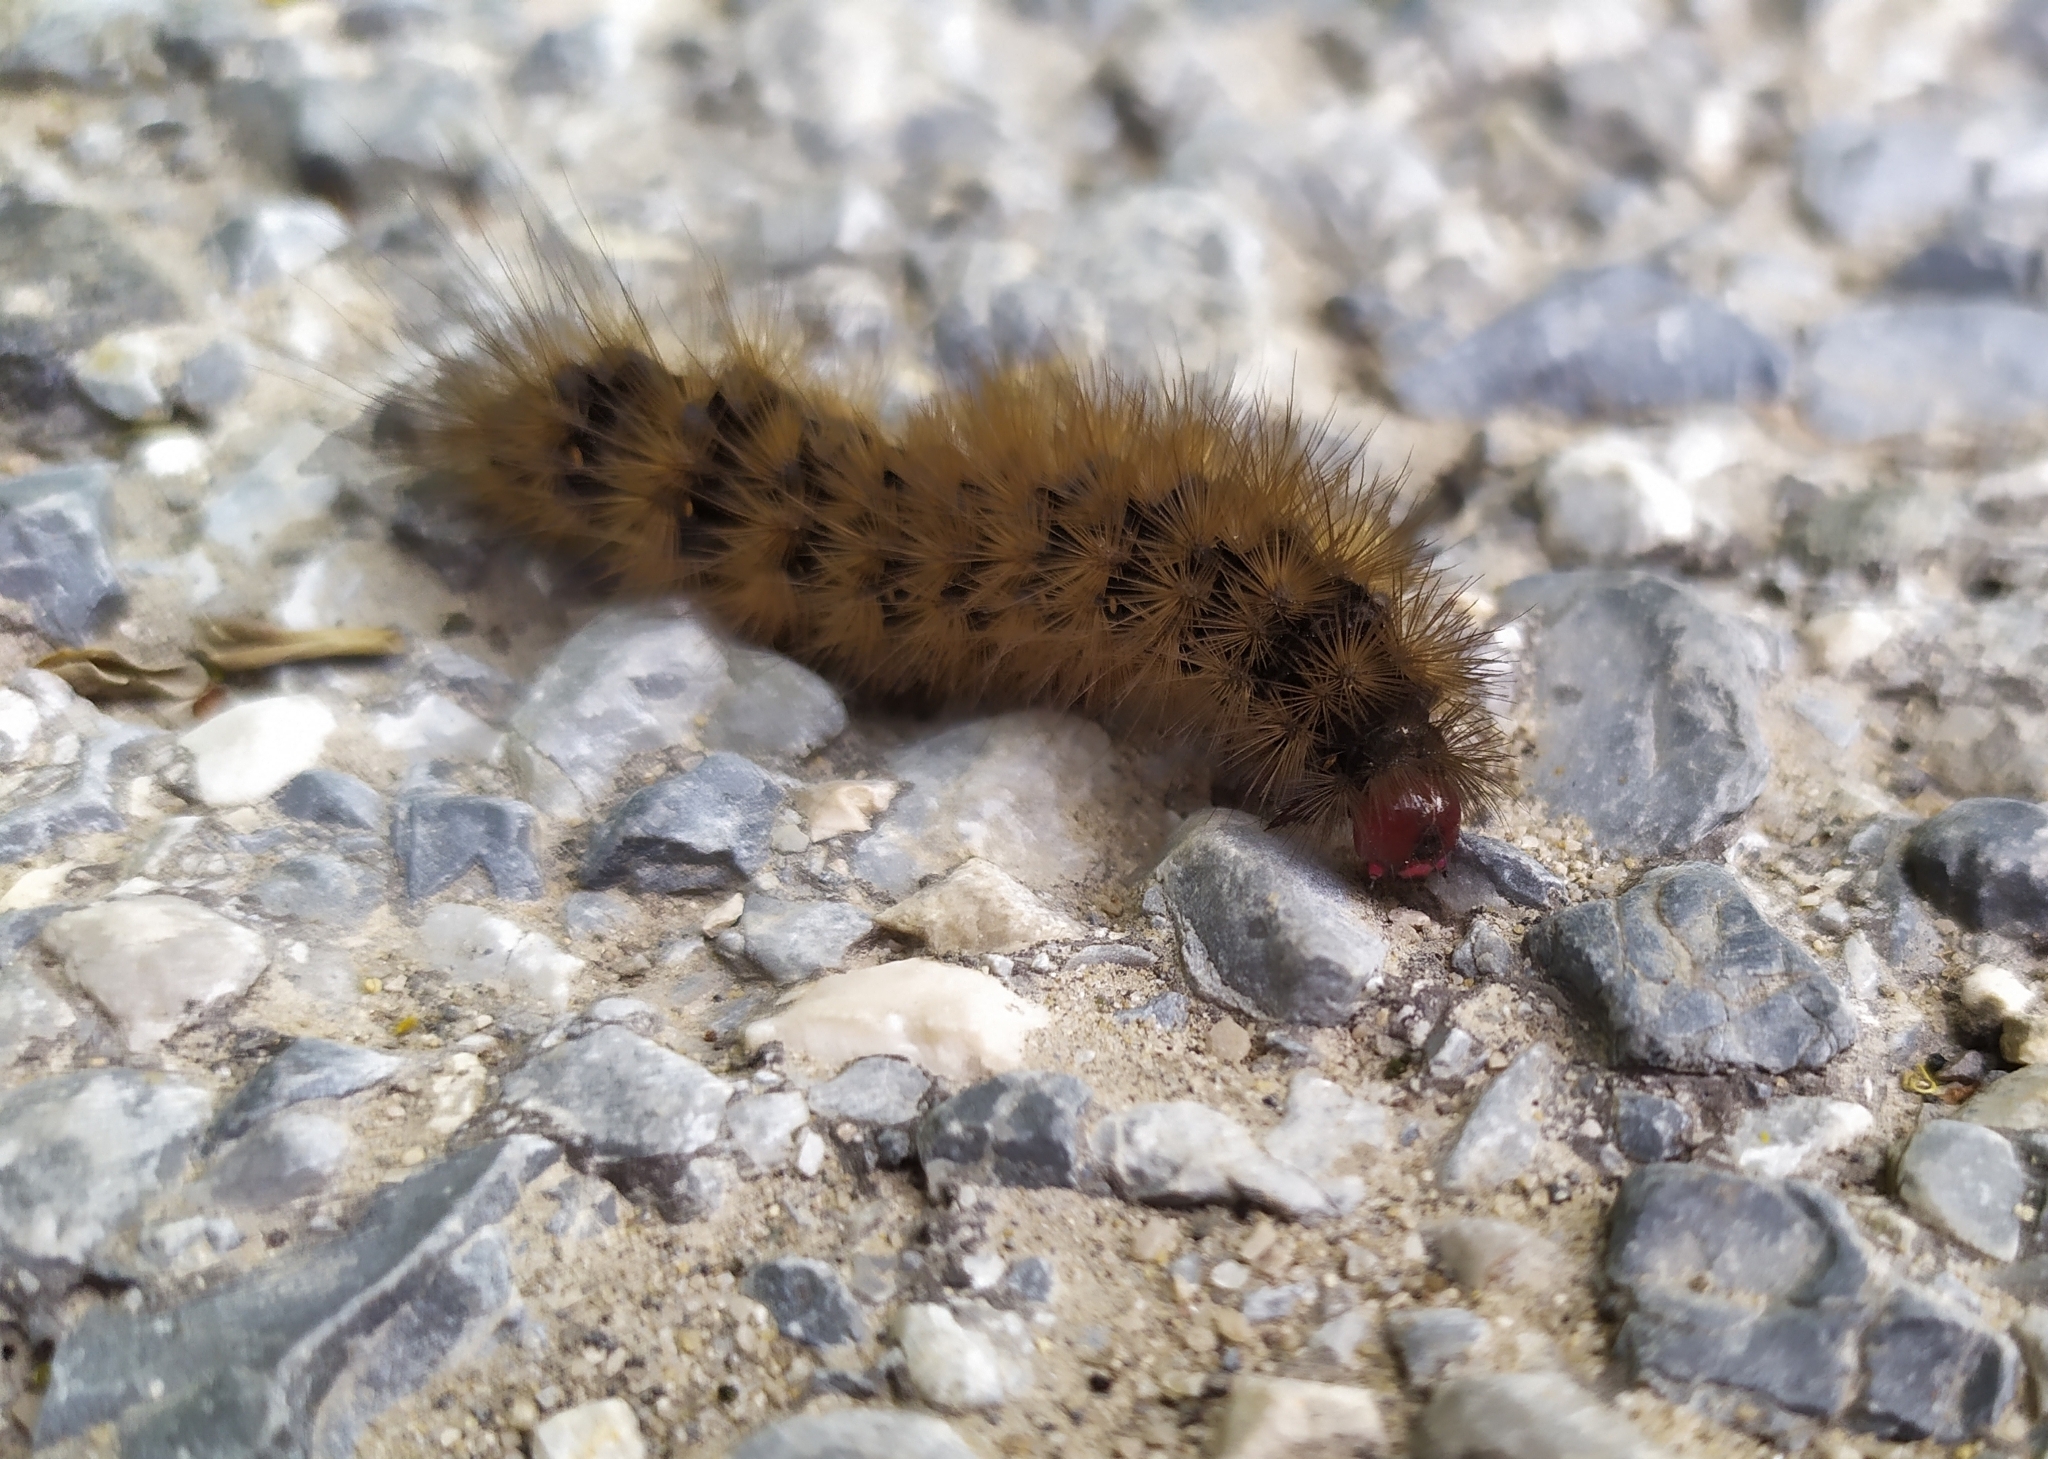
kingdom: Animalia
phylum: Arthropoda
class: Insecta
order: Lepidoptera
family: Erebidae
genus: Epicallia
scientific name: Epicallia villica
